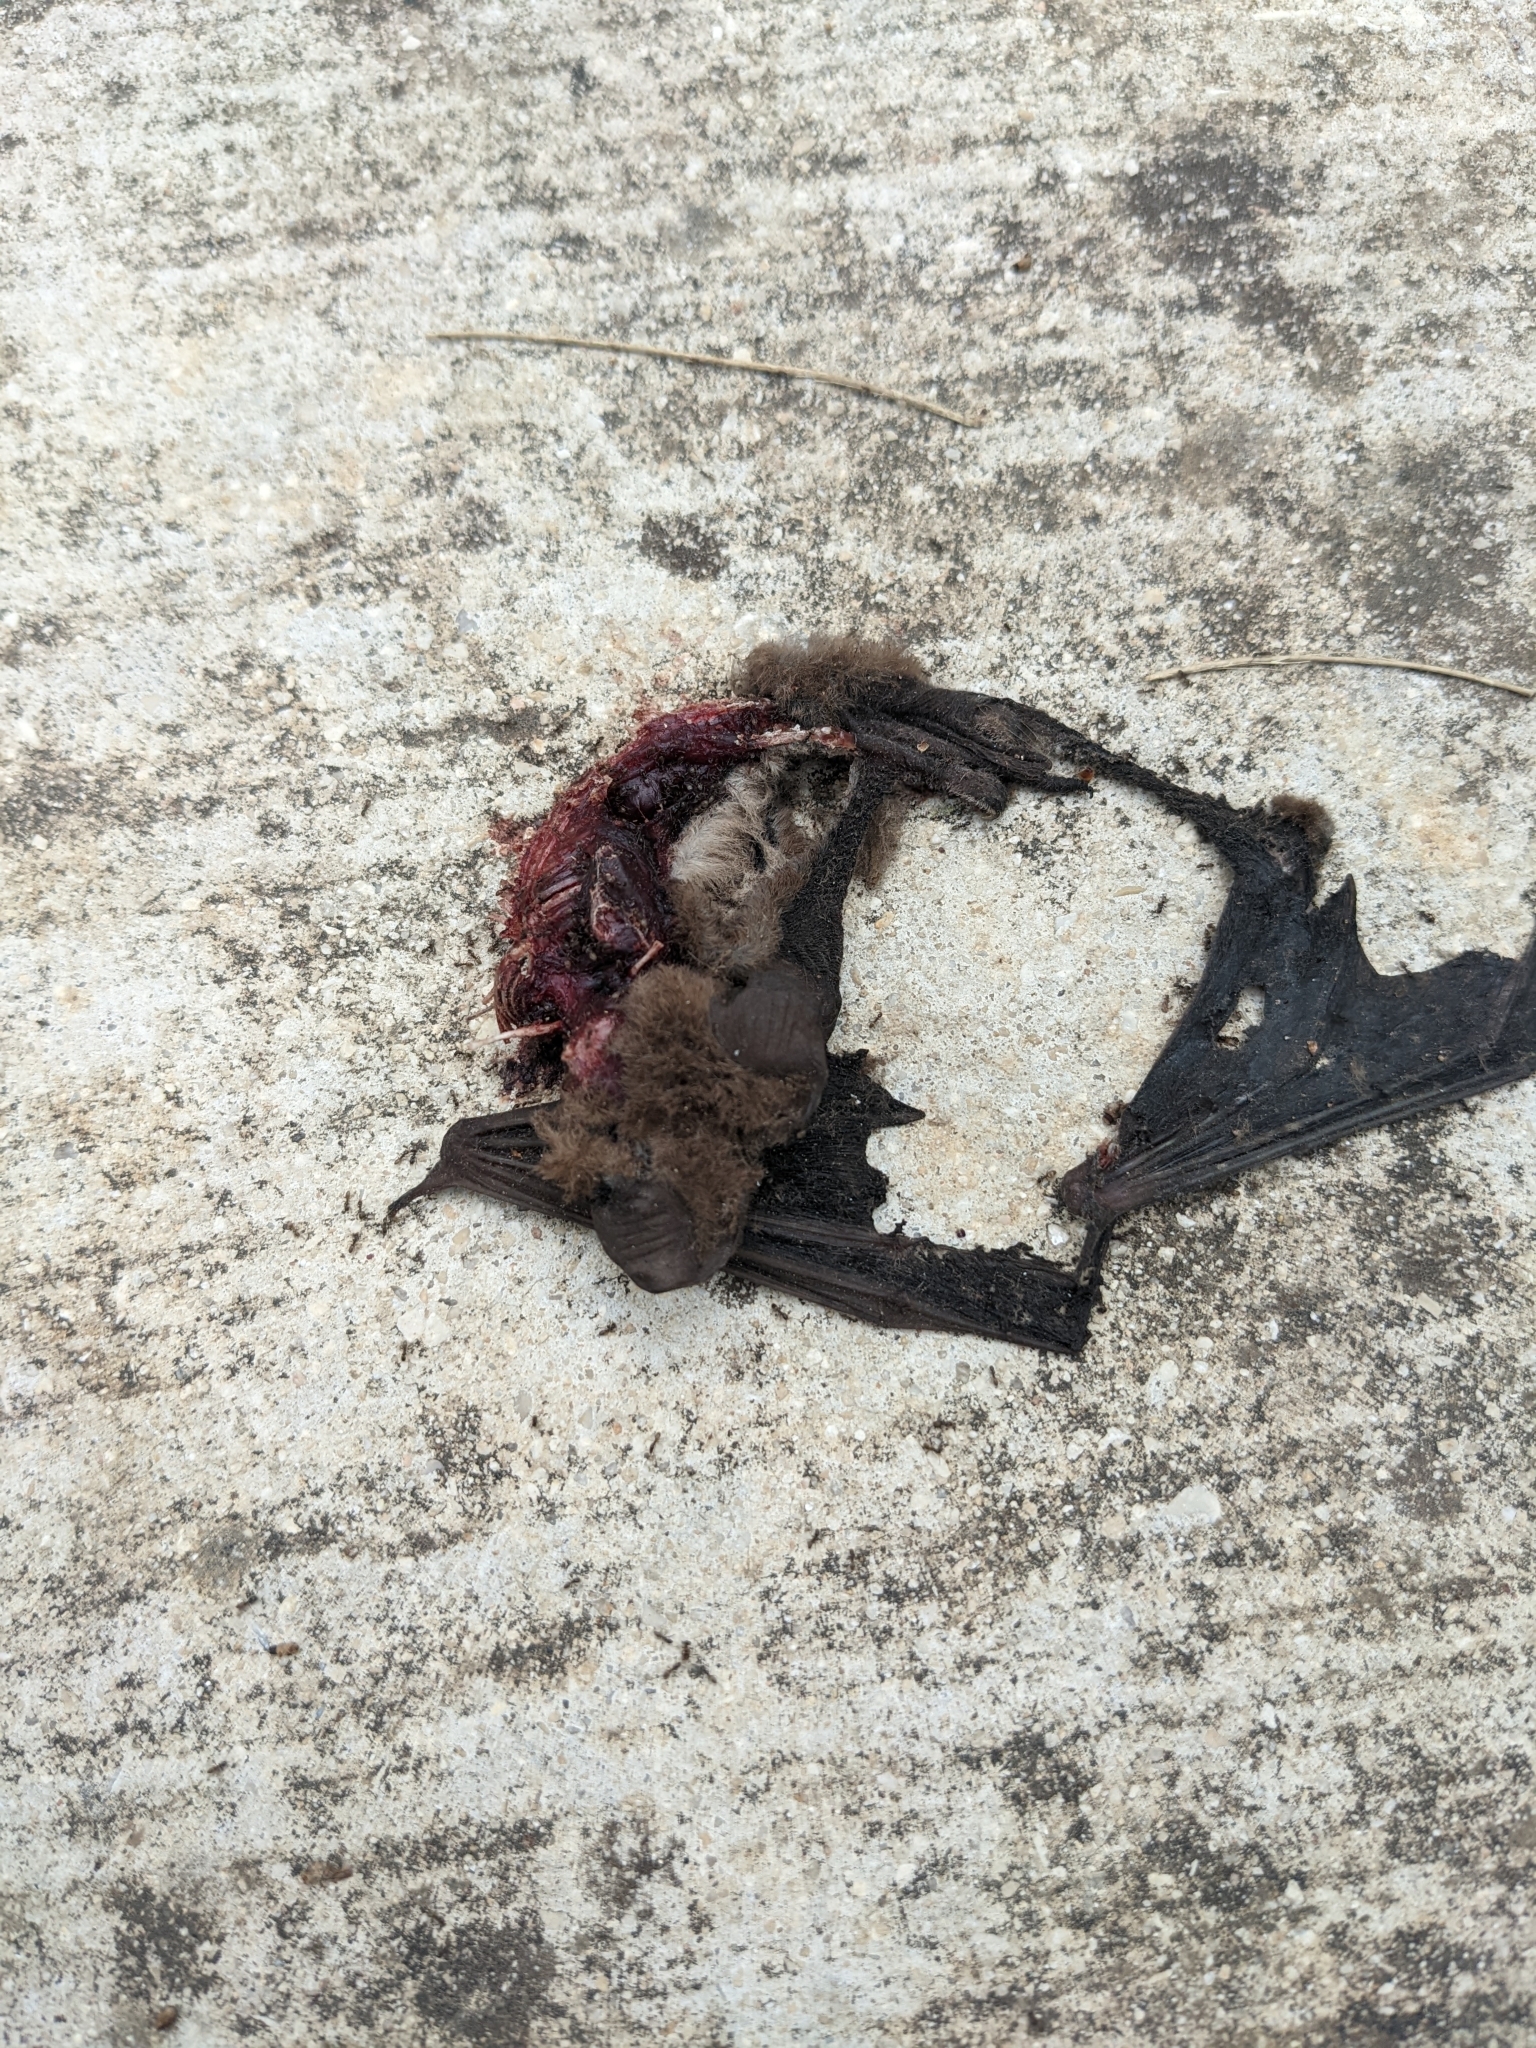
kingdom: Animalia
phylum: Chordata
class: Mammalia
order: Chiroptera
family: Molossidae
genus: Tadarida
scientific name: Tadarida brasiliensis
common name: Mexican free-tailed bat
